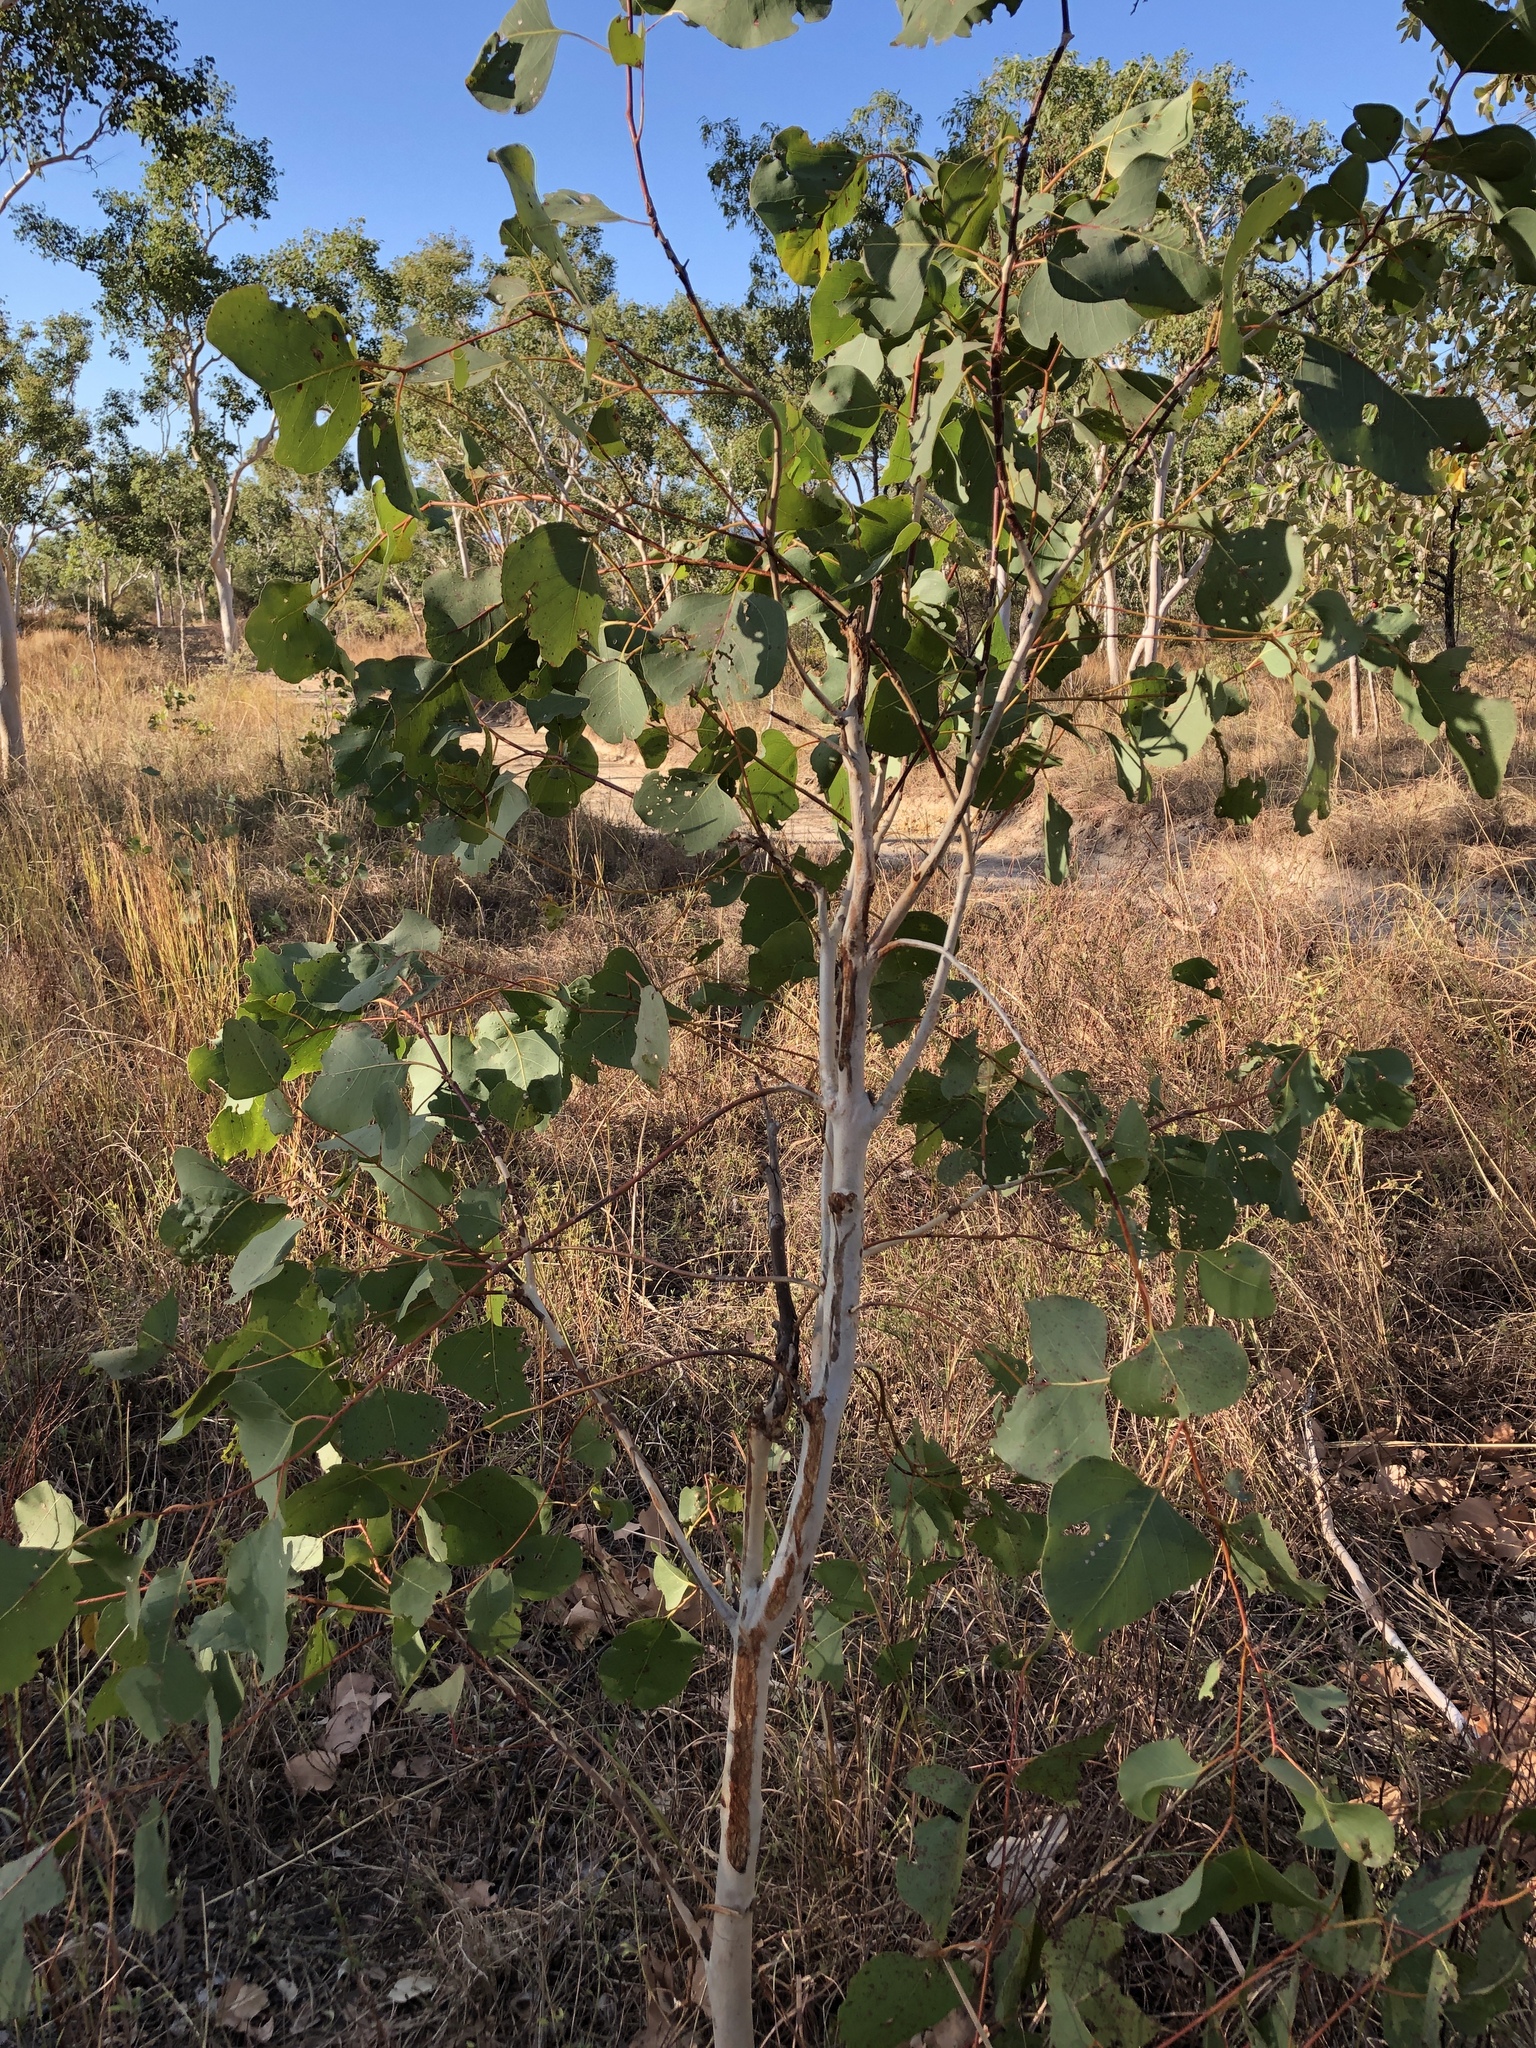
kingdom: Plantae
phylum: Tracheophyta
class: Magnoliopsida
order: Myrtales
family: Myrtaceae
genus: Eucalyptus
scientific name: Eucalyptus platyphylla
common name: Poplar-gum
